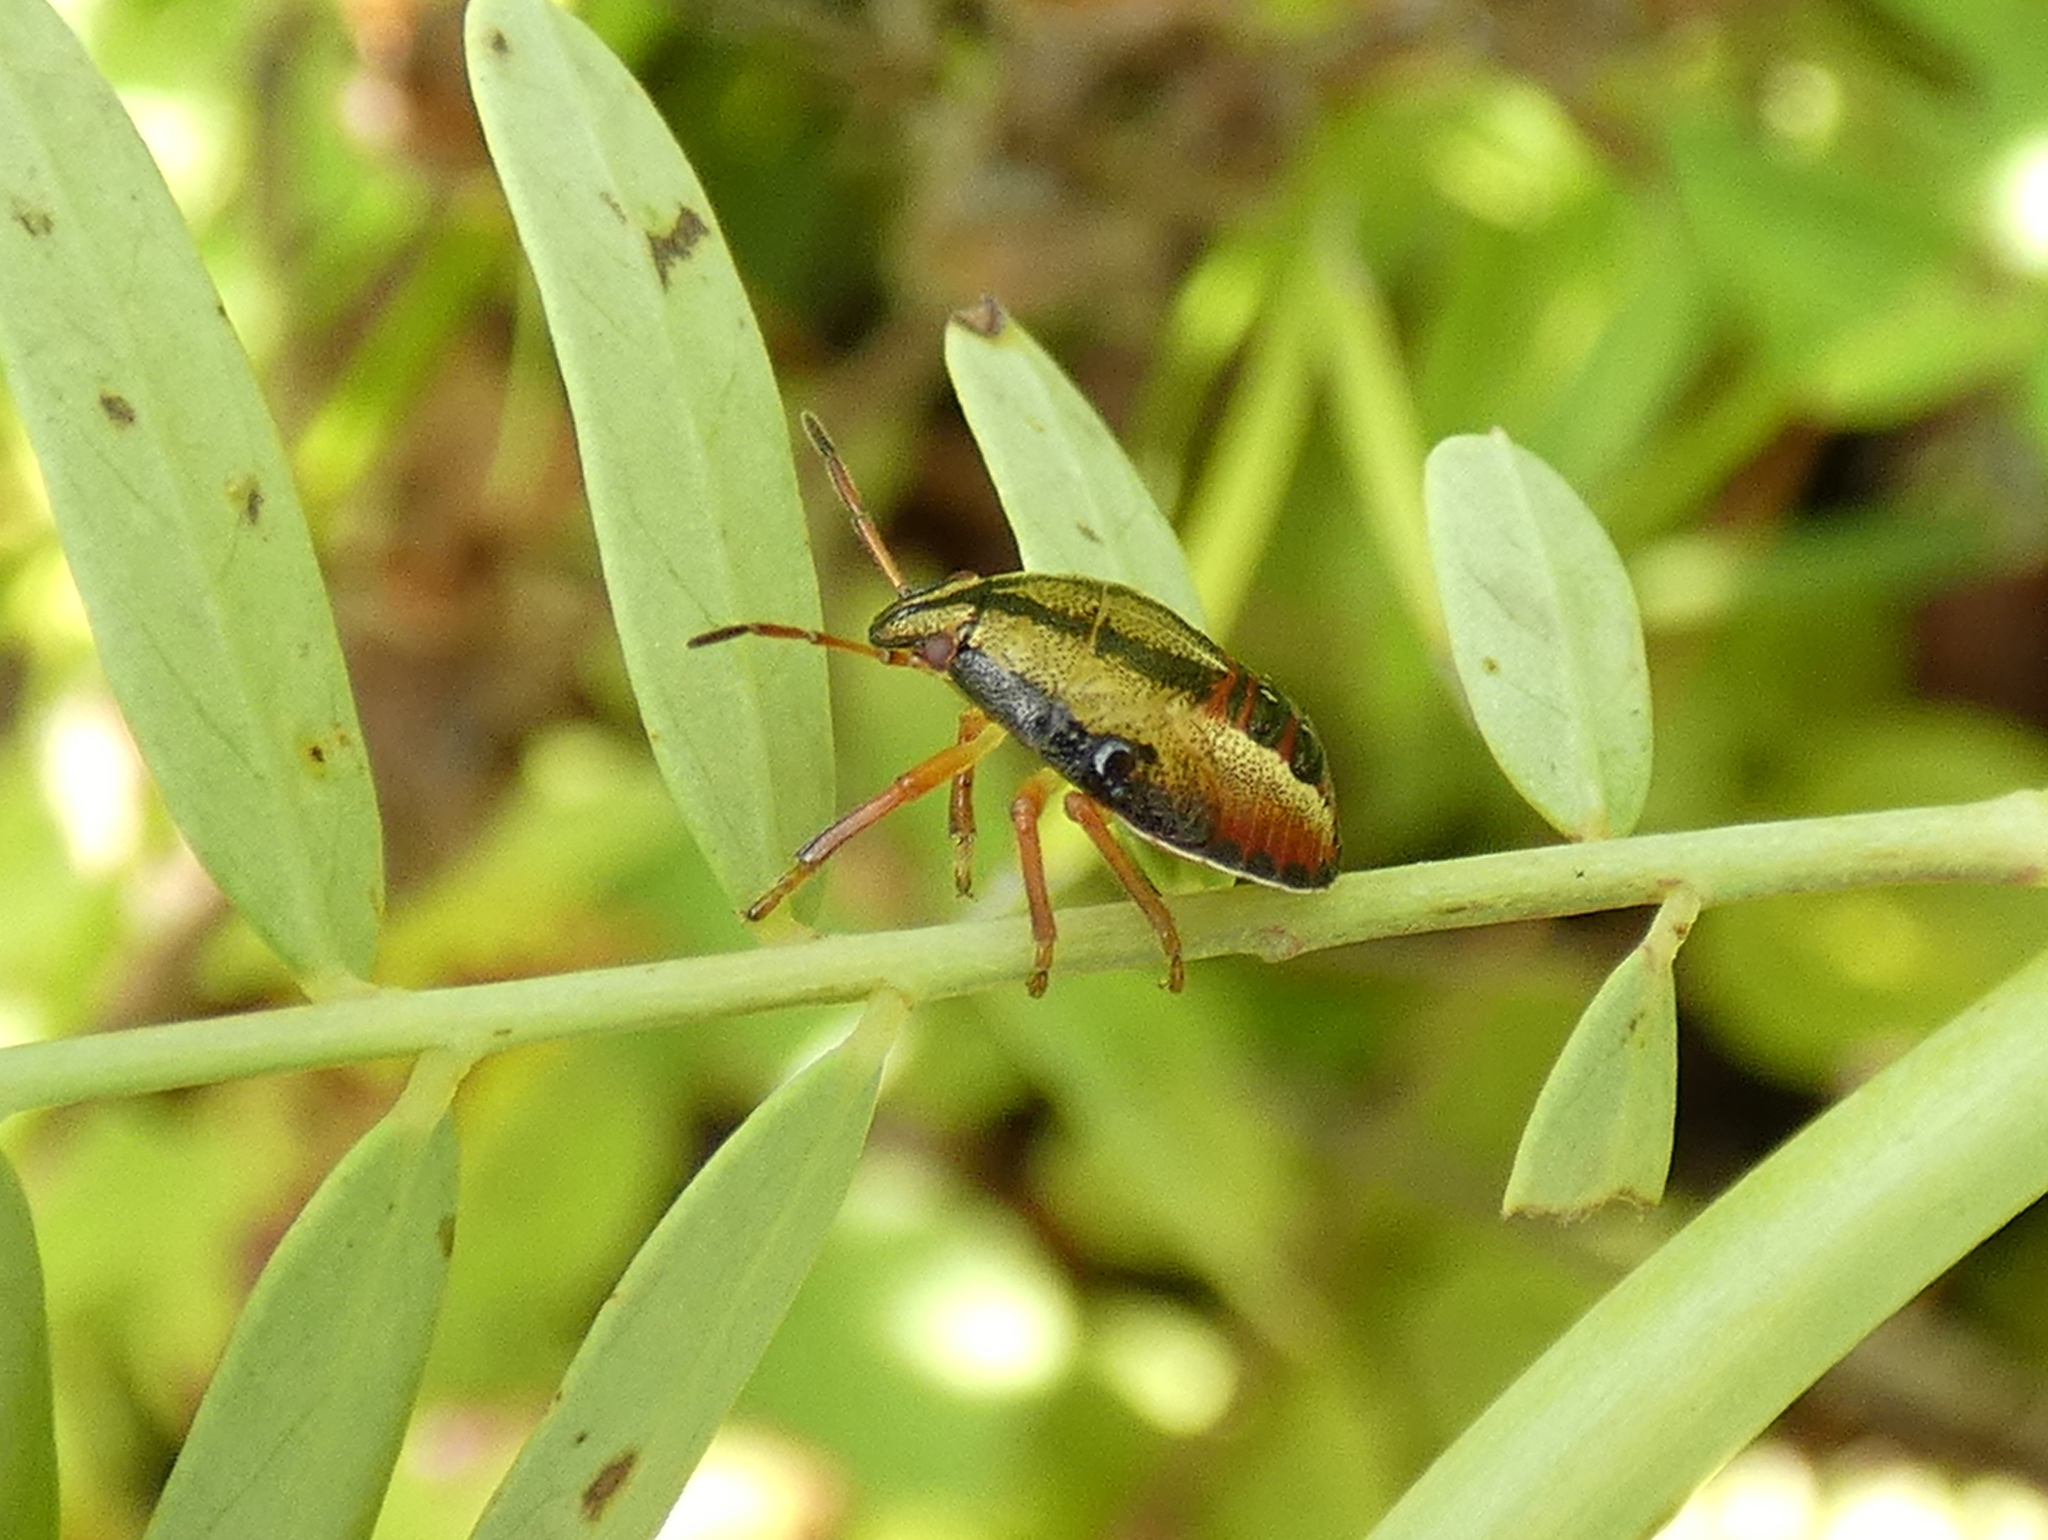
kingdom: Animalia
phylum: Arthropoda
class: Insecta
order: Hemiptera
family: Pentatomidae
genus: Piezodorus
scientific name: Piezodorus guildinii
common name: Redbanded stink bug
